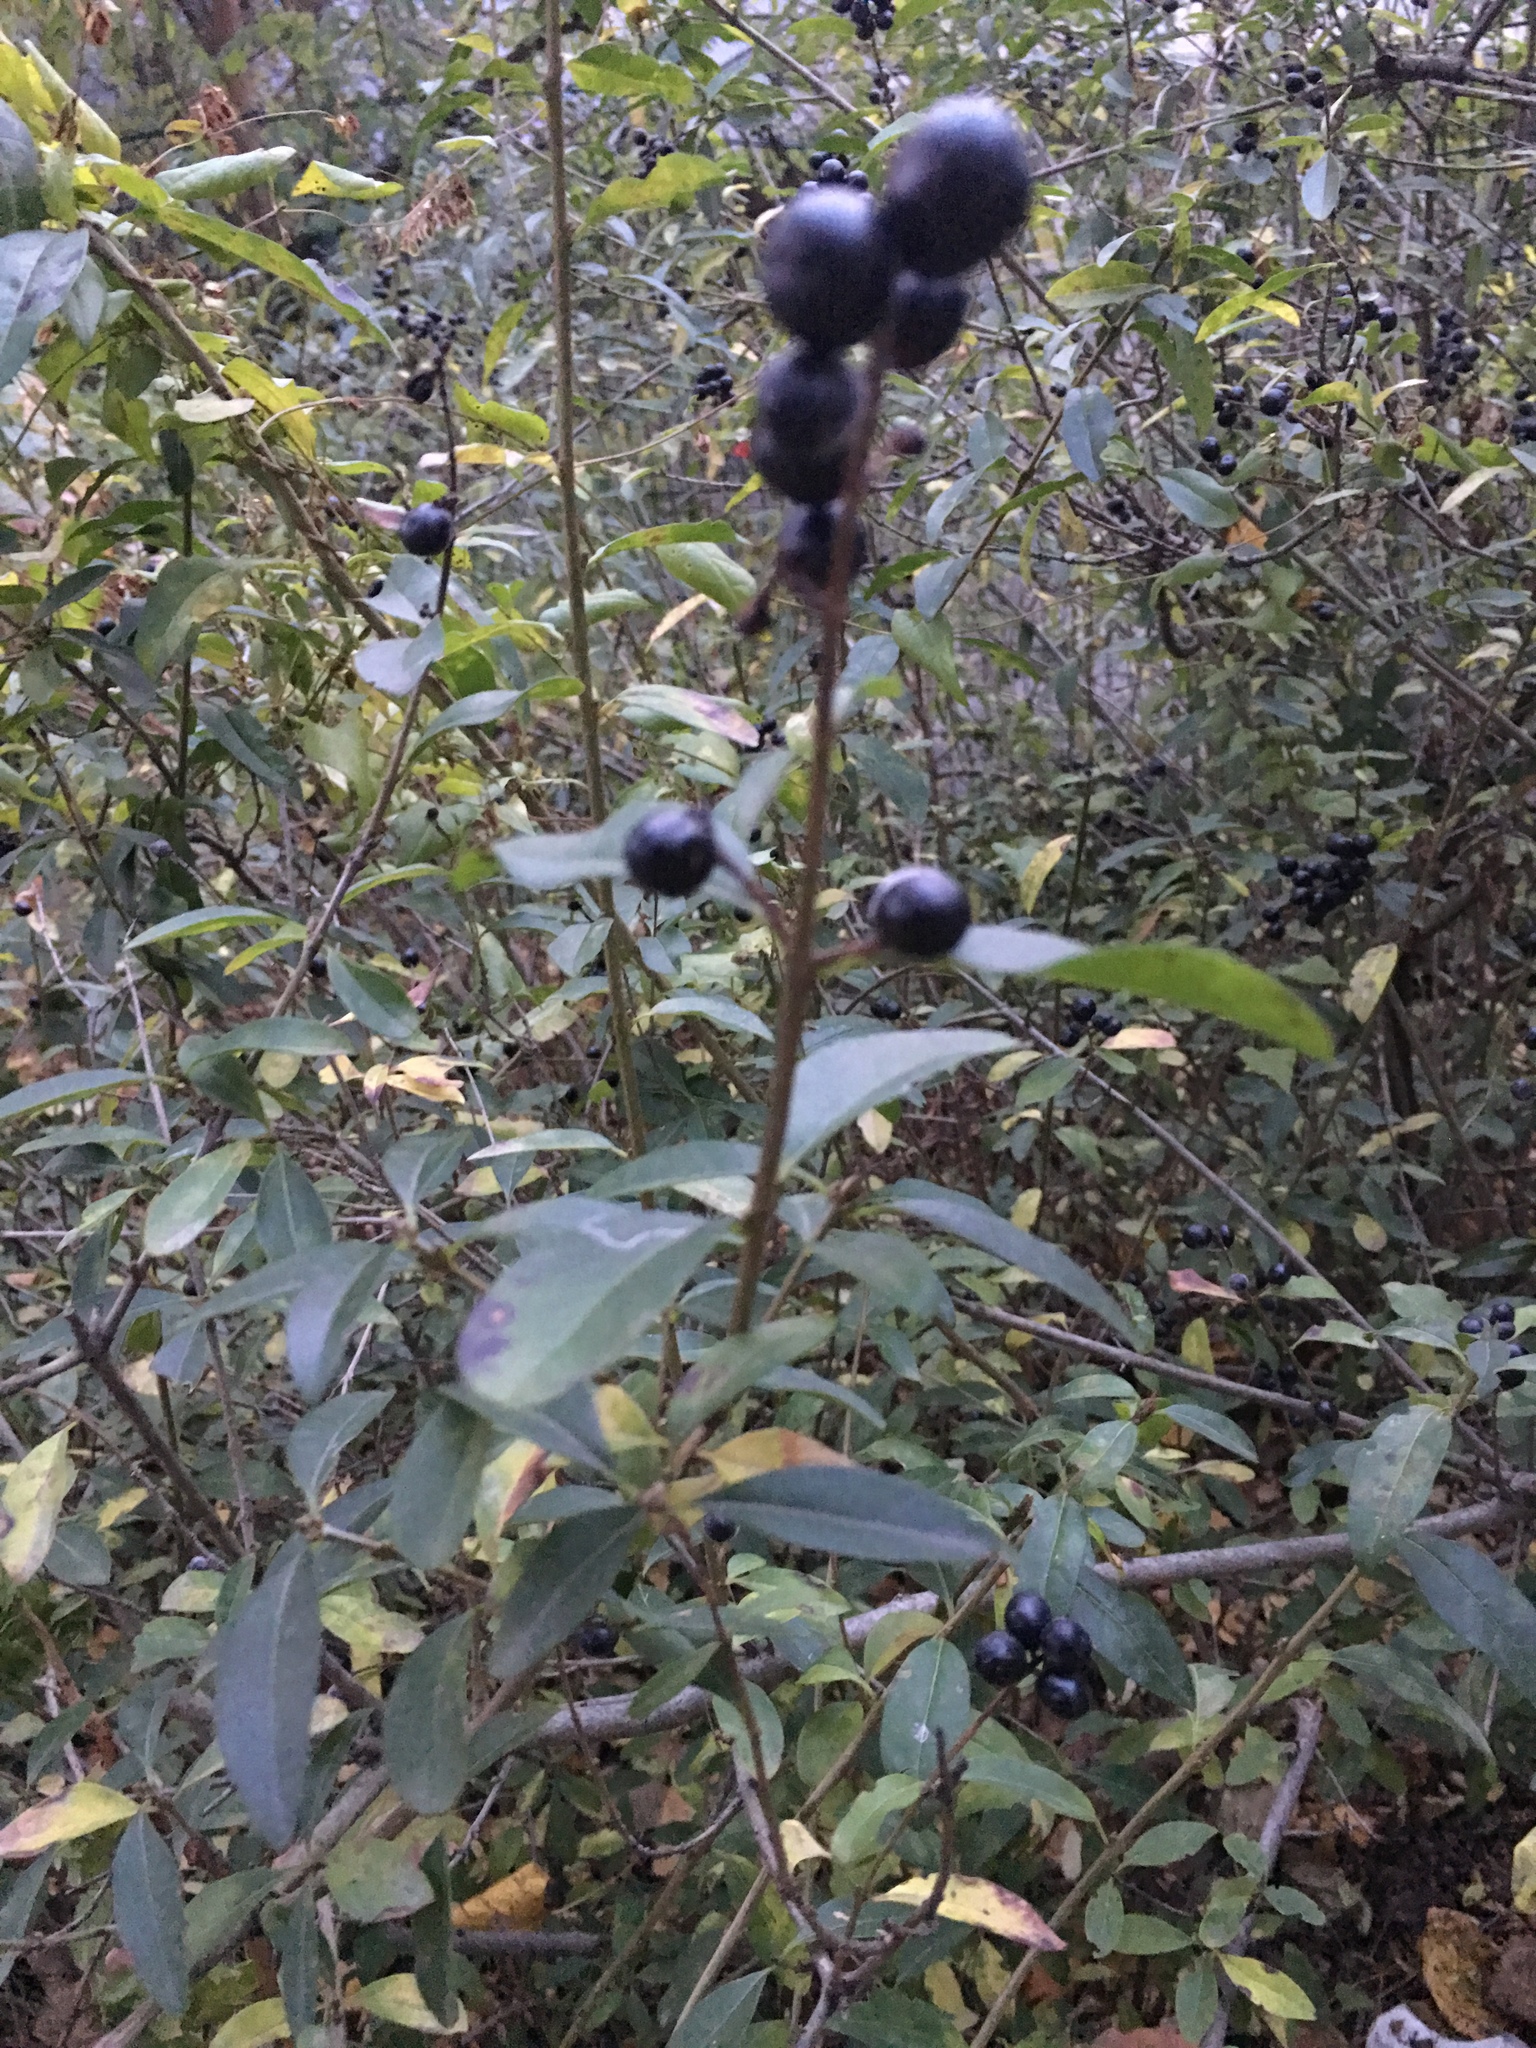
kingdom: Plantae
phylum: Tracheophyta
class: Magnoliopsida
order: Lamiales
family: Oleaceae
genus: Ligustrum
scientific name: Ligustrum vulgare
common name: Wild privet
